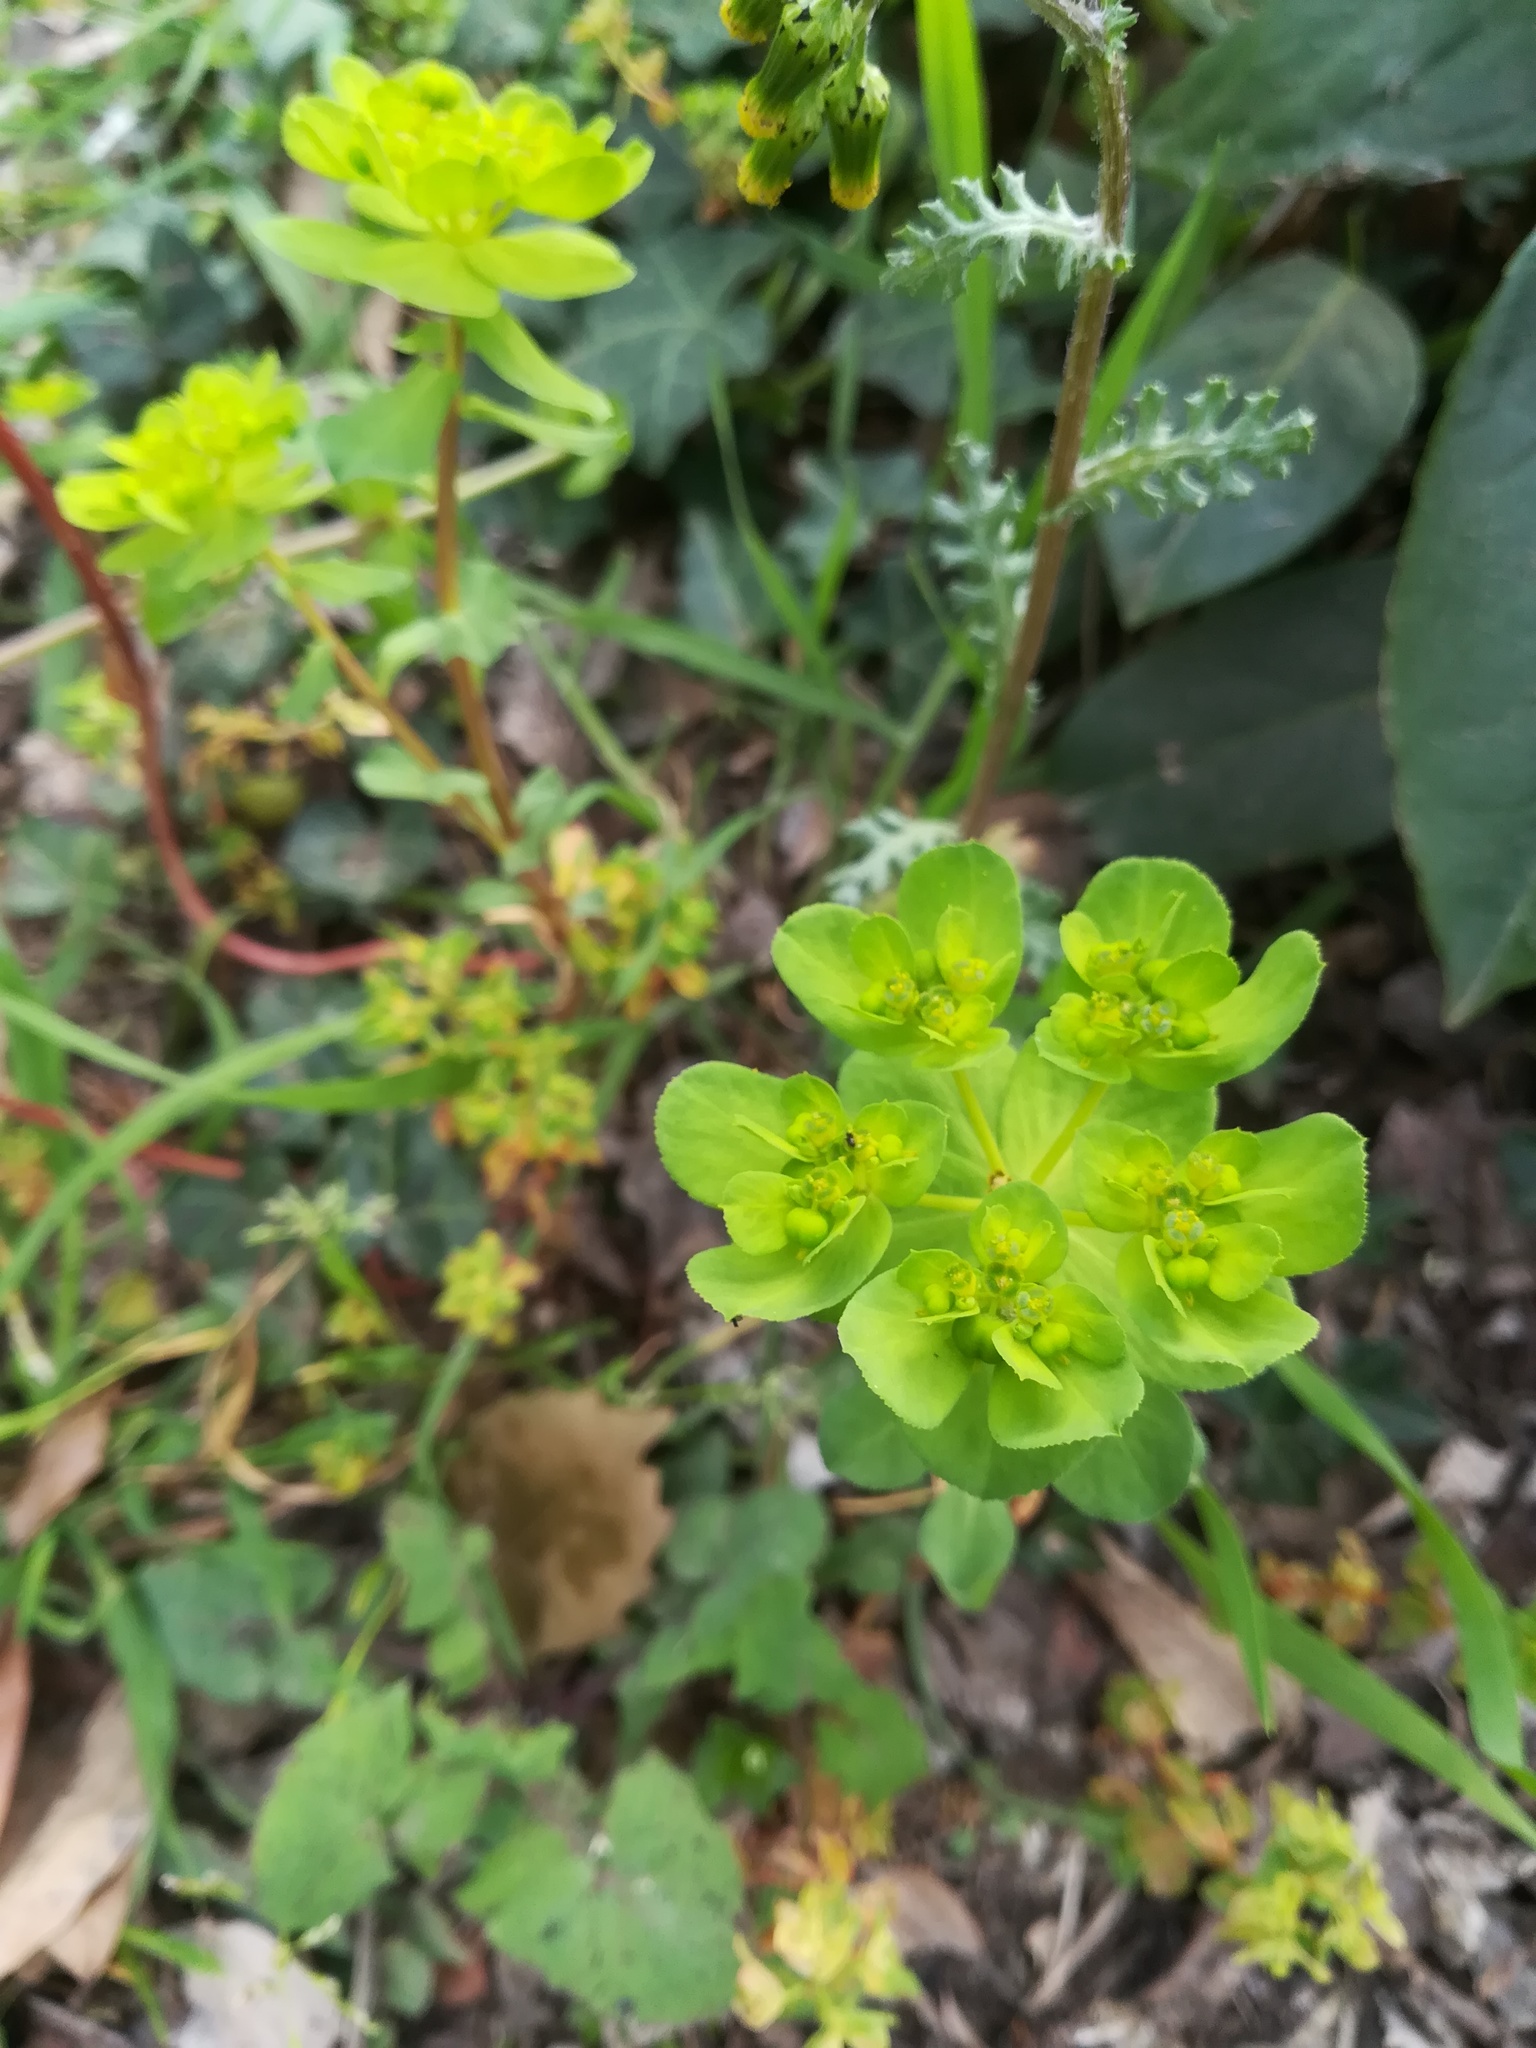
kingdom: Plantae
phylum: Tracheophyta
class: Magnoliopsida
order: Malpighiales
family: Euphorbiaceae
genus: Euphorbia
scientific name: Euphorbia helioscopia
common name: Sun spurge
